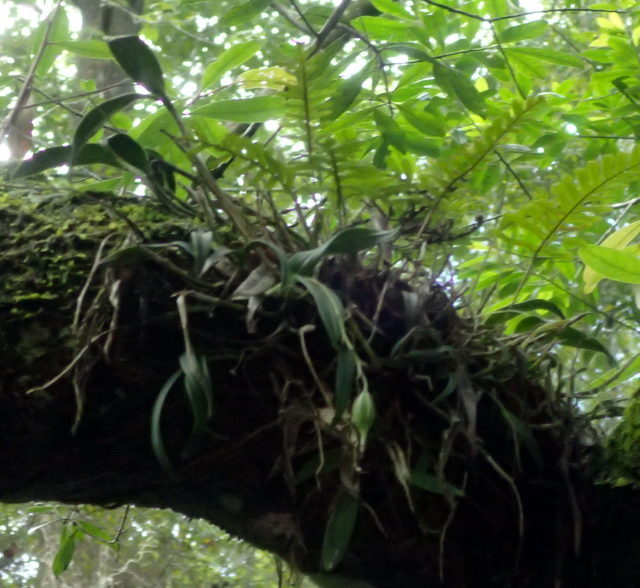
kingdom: Plantae
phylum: Tracheophyta
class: Liliopsida
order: Asparagales
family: Orchidaceae
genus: Epidendrum
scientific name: Epidendrum conopseum
